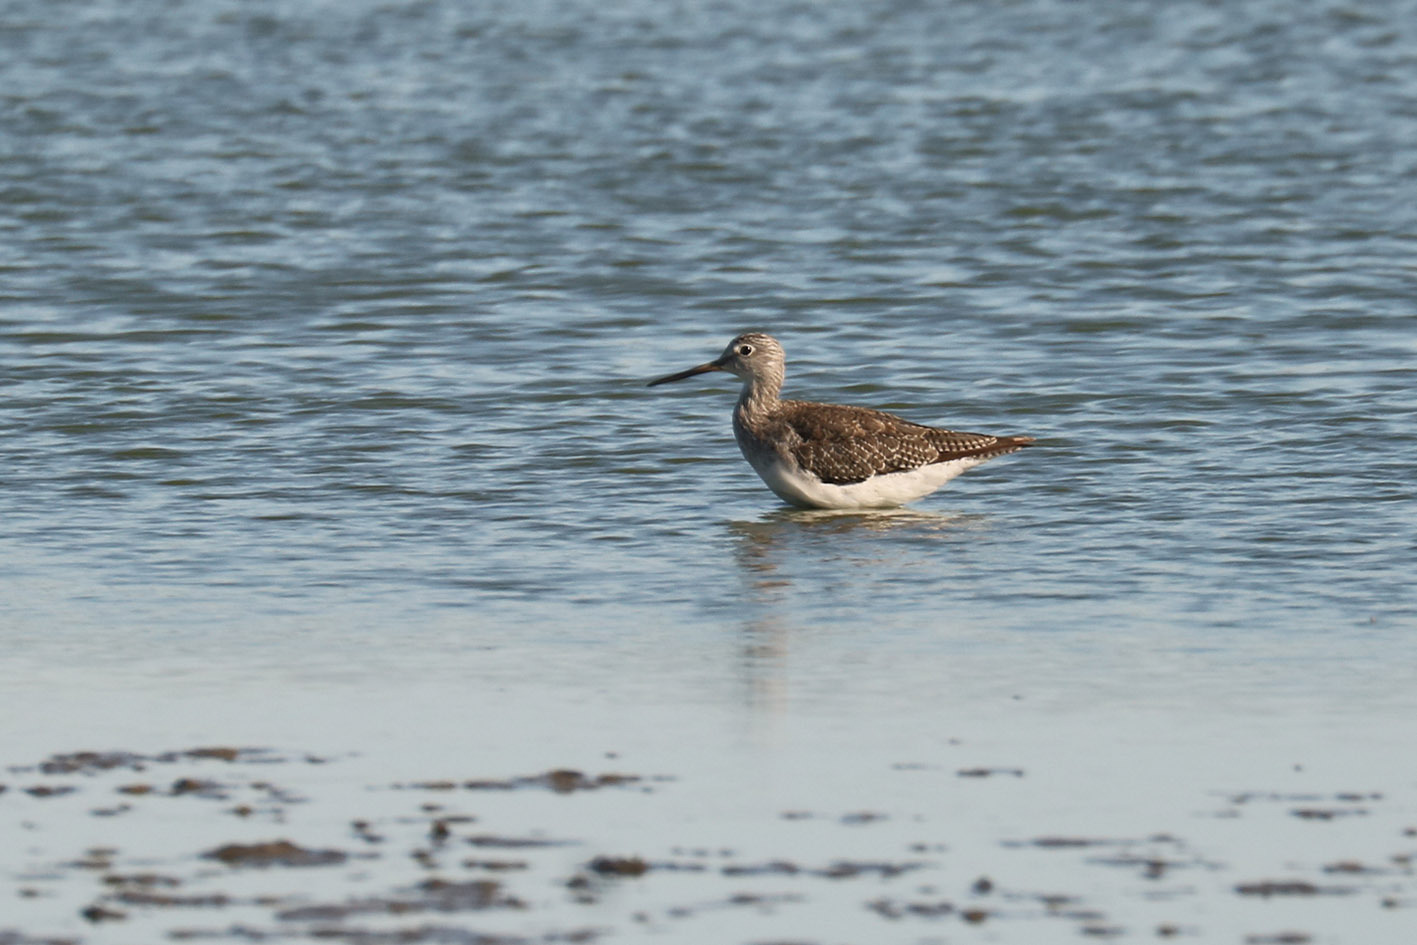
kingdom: Animalia
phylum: Chordata
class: Aves
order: Charadriiformes
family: Scolopacidae
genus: Tringa
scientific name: Tringa melanoleuca
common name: Greater yellowlegs
